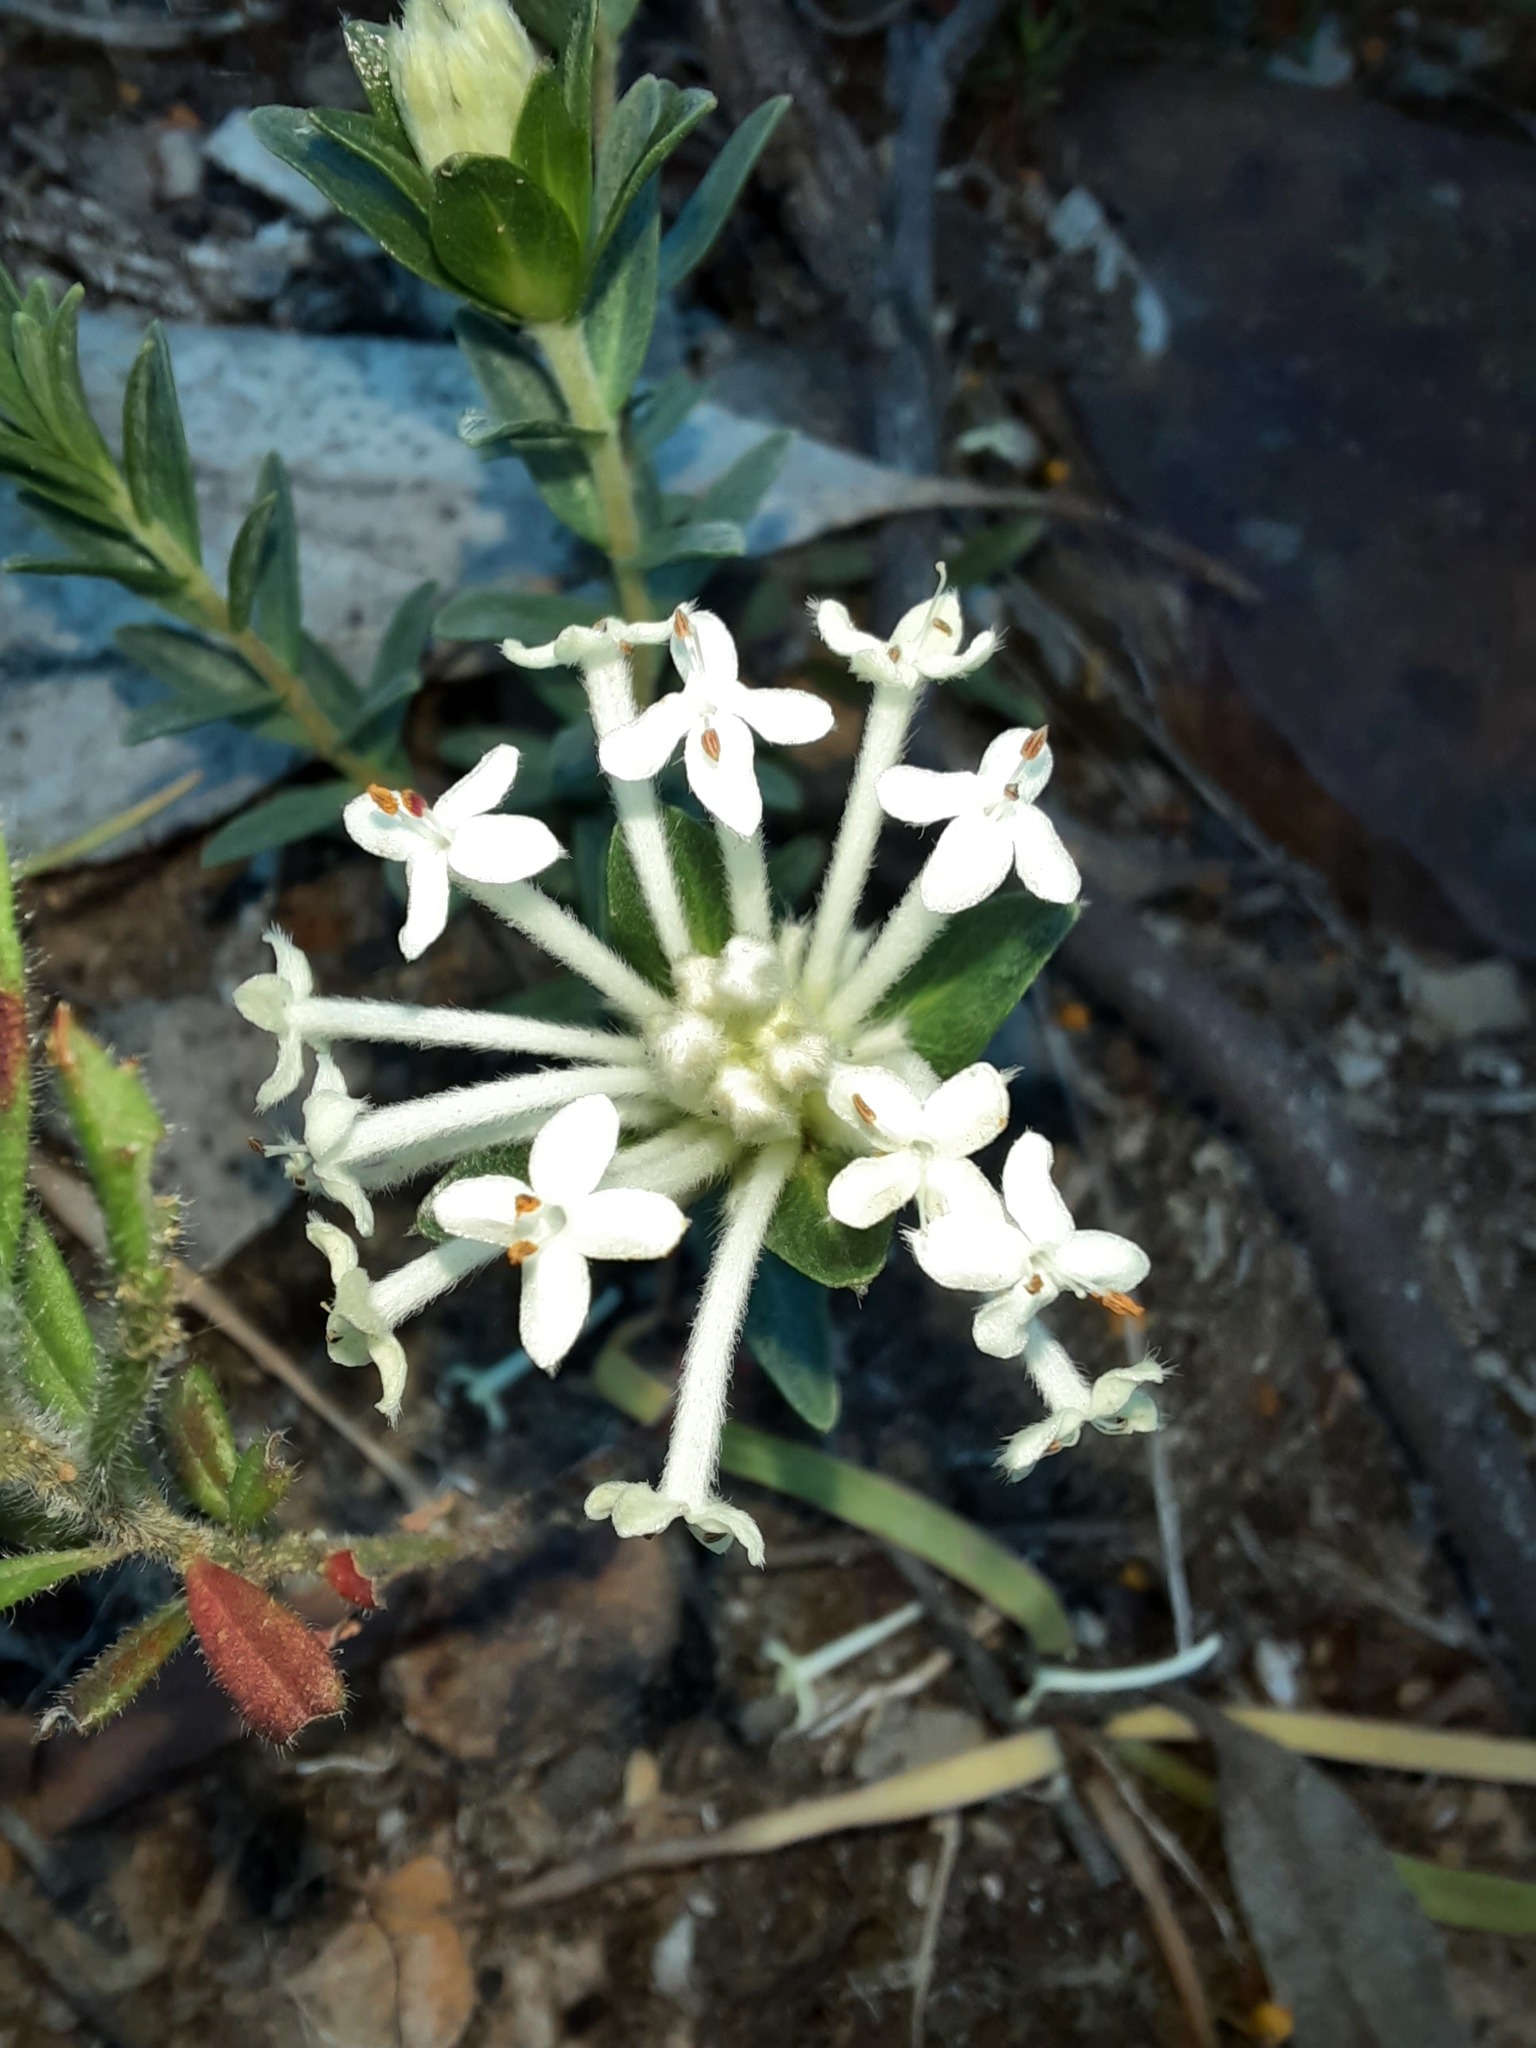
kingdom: Plantae
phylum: Tracheophyta
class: Magnoliopsida
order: Malvales
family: Thymelaeaceae
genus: Pimelea
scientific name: Pimelea humilis
